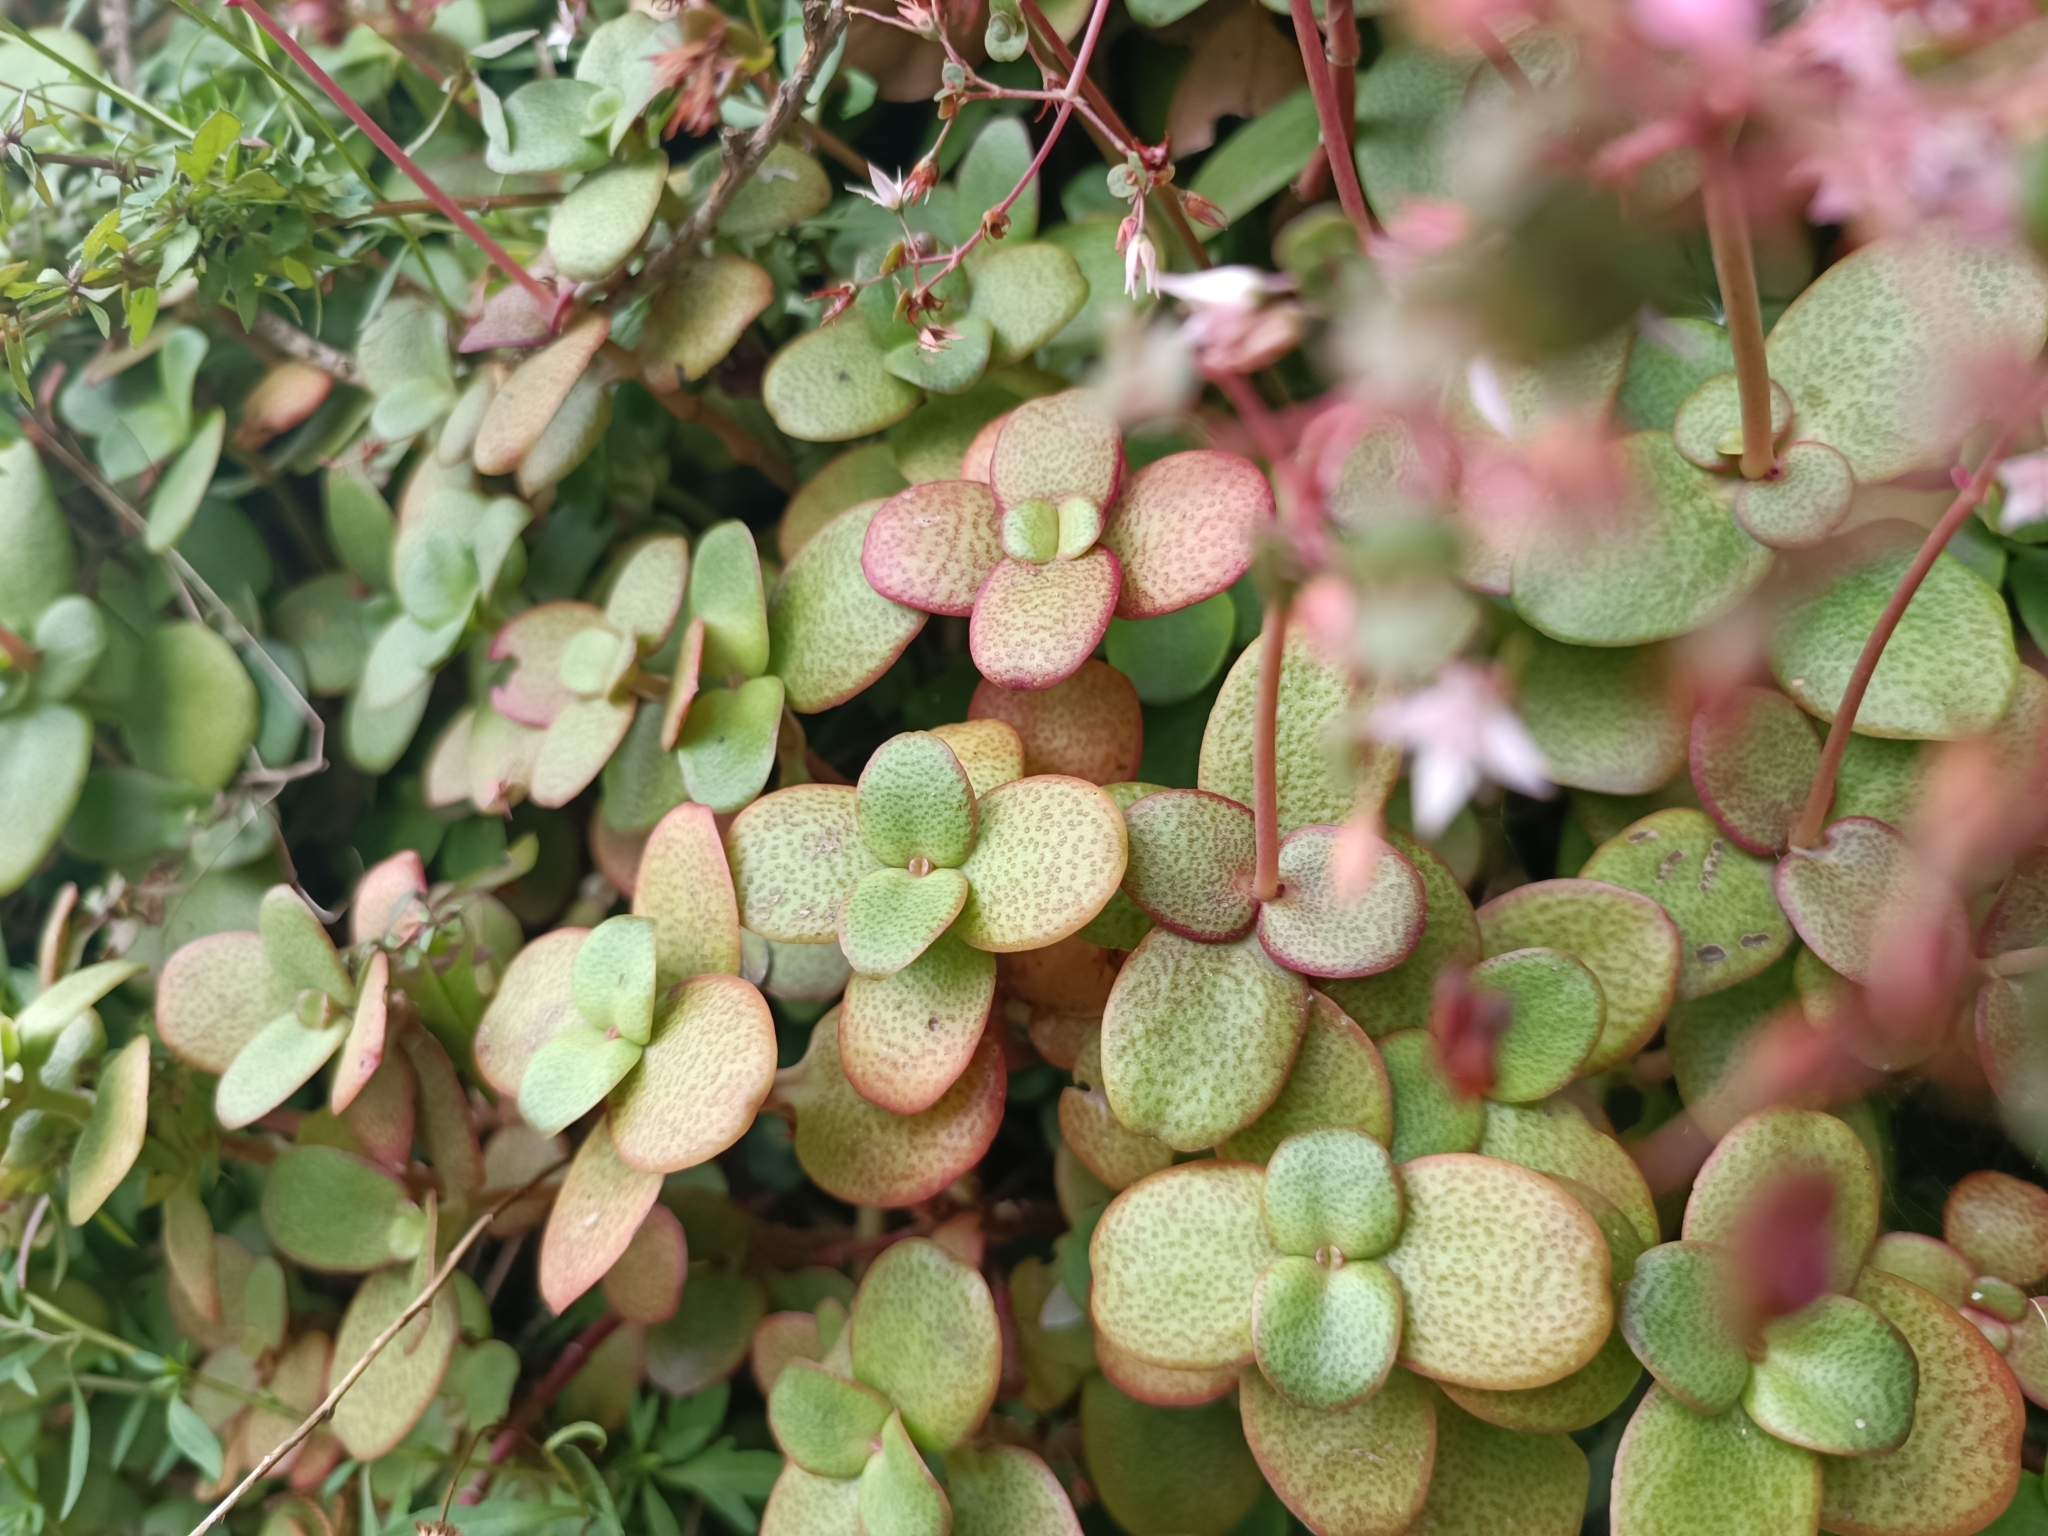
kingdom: Plantae
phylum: Tracheophyta
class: Magnoliopsida
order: Saxifragales
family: Crassulaceae
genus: Crassula
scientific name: Crassula multicava
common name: Cape province pygmyweed
